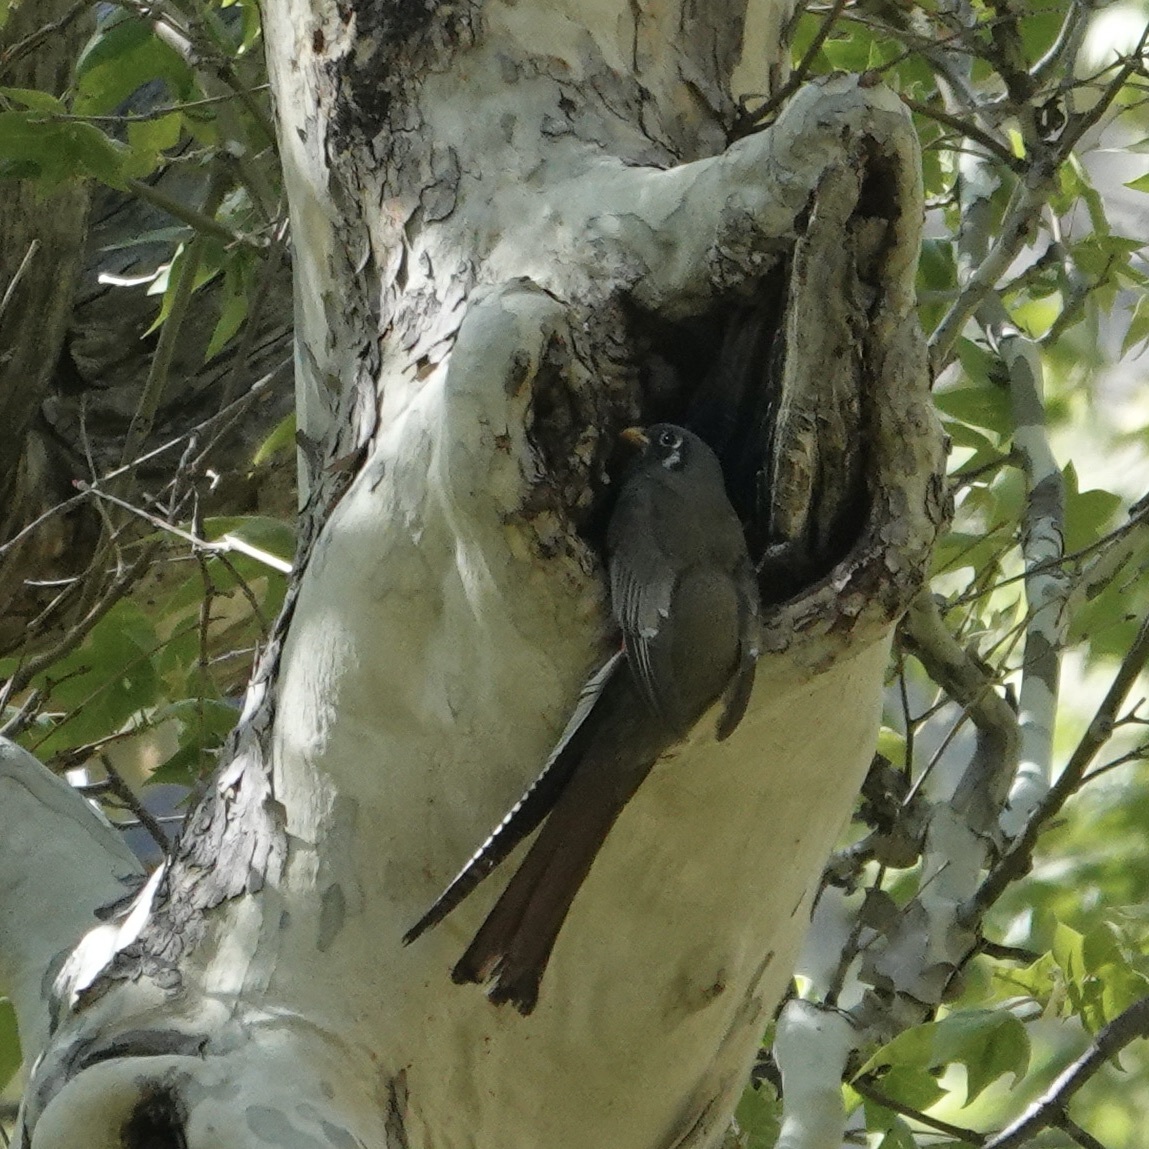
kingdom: Animalia
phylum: Chordata
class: Aves
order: Trogoniformes
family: Trogonidae
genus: Trogon
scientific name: Trogon elegans
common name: Elegant trogon
